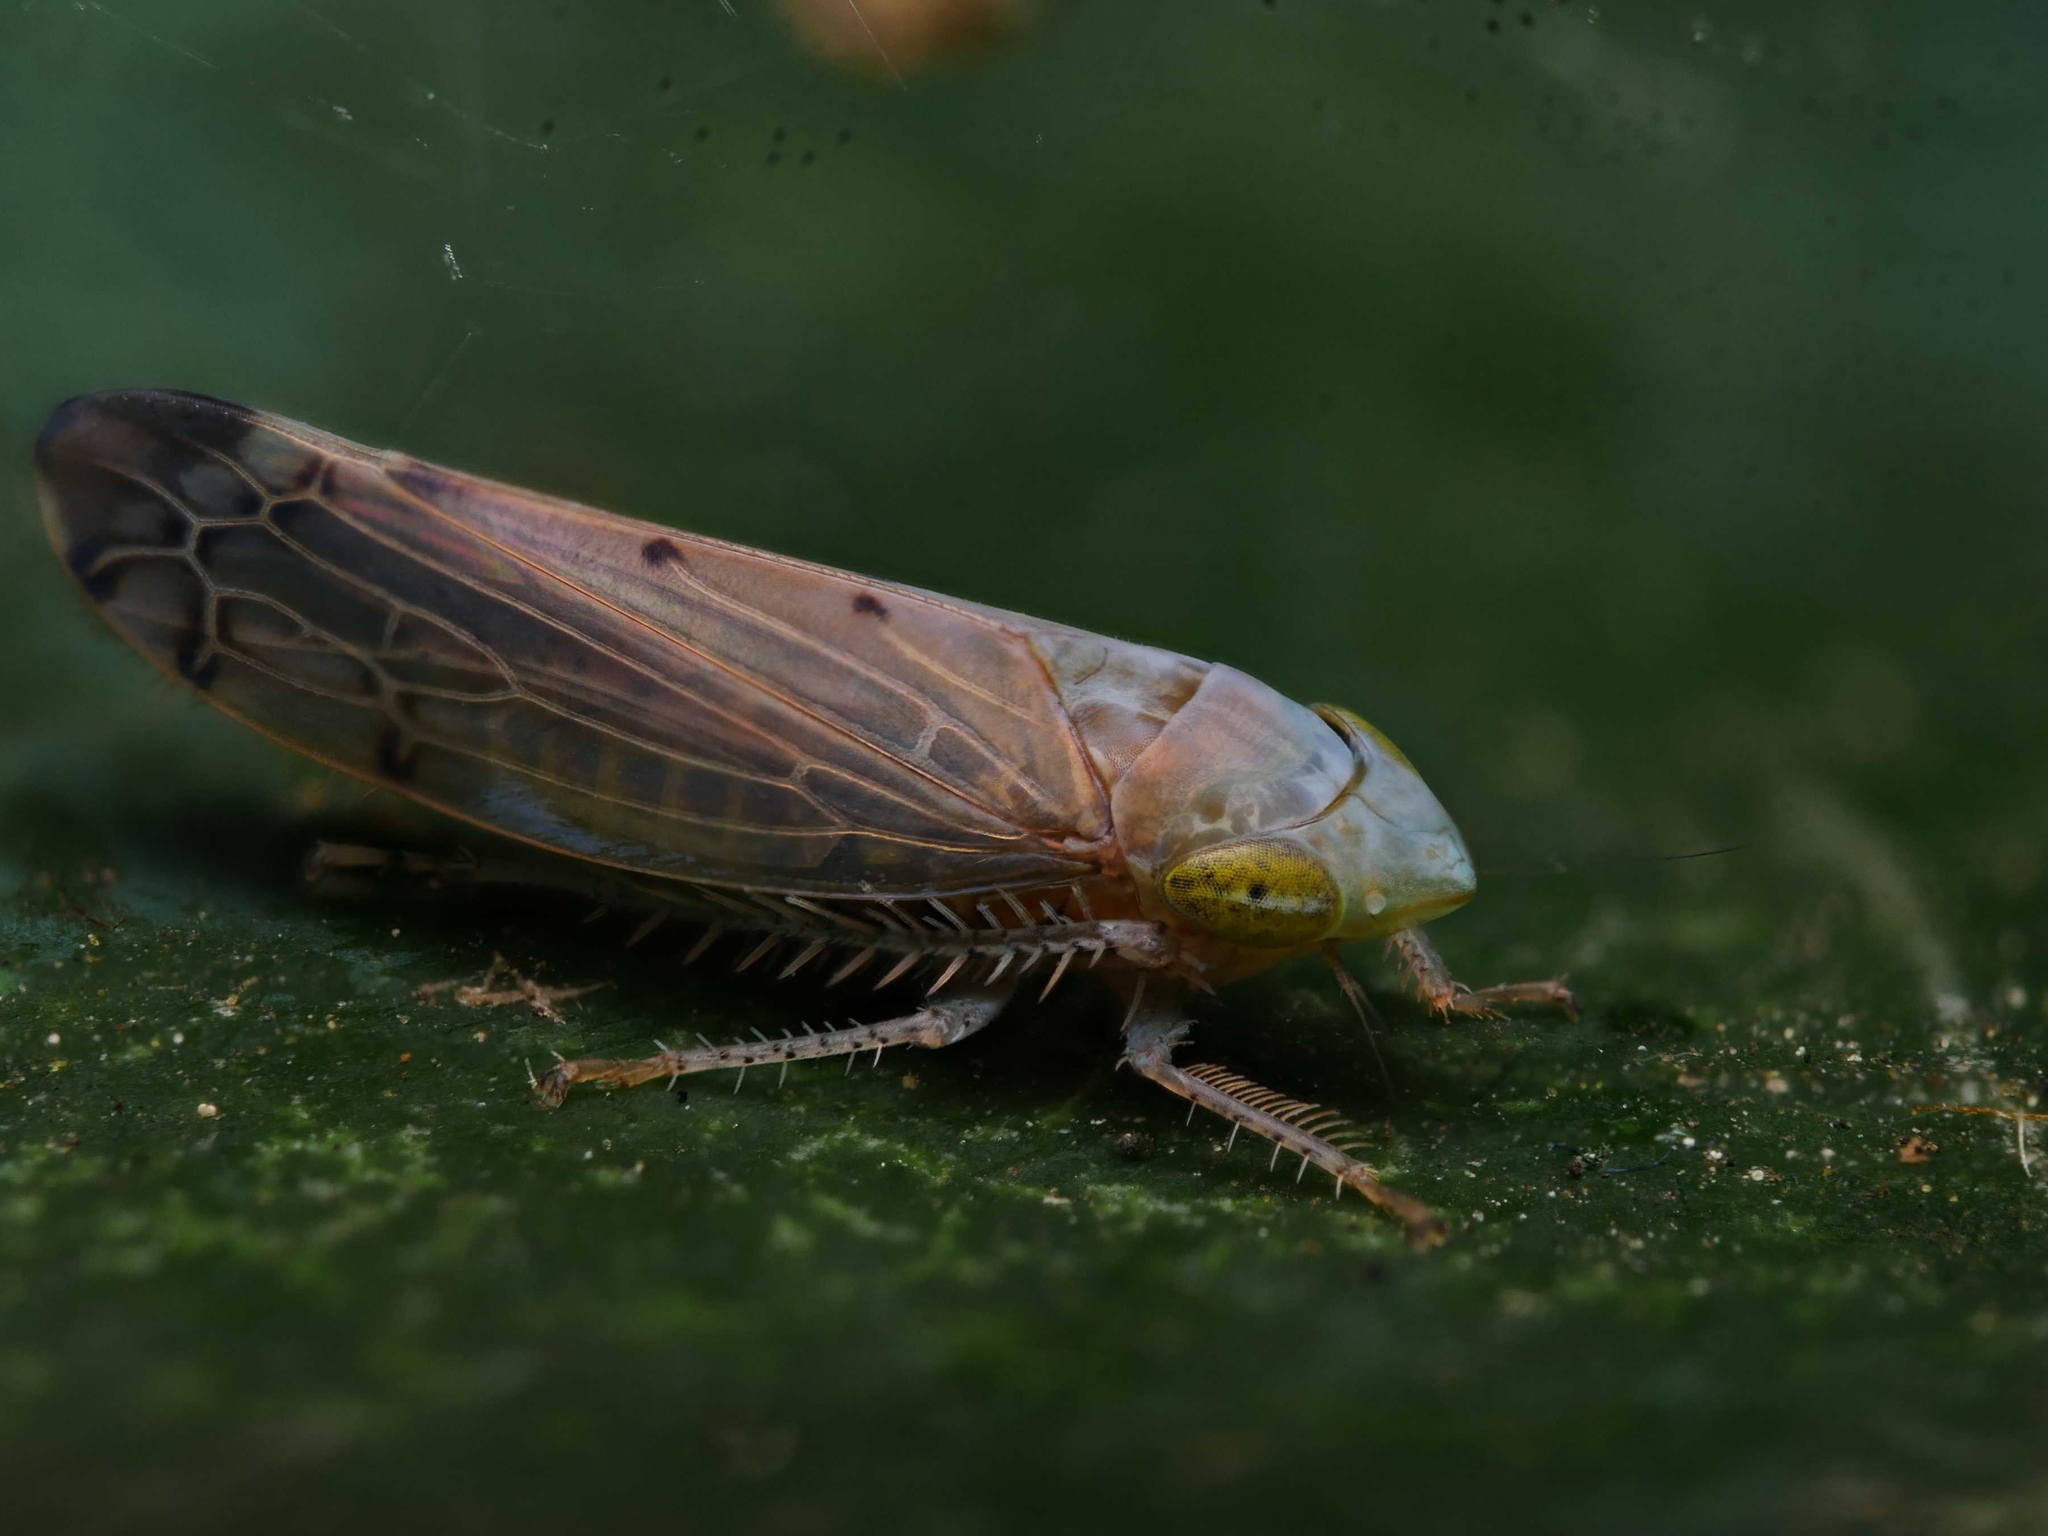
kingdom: Animalia
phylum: Arthropoda
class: Insecta
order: Hemiptera
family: Cicadellidae
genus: Synophropsis
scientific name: Synophropsis lauri
